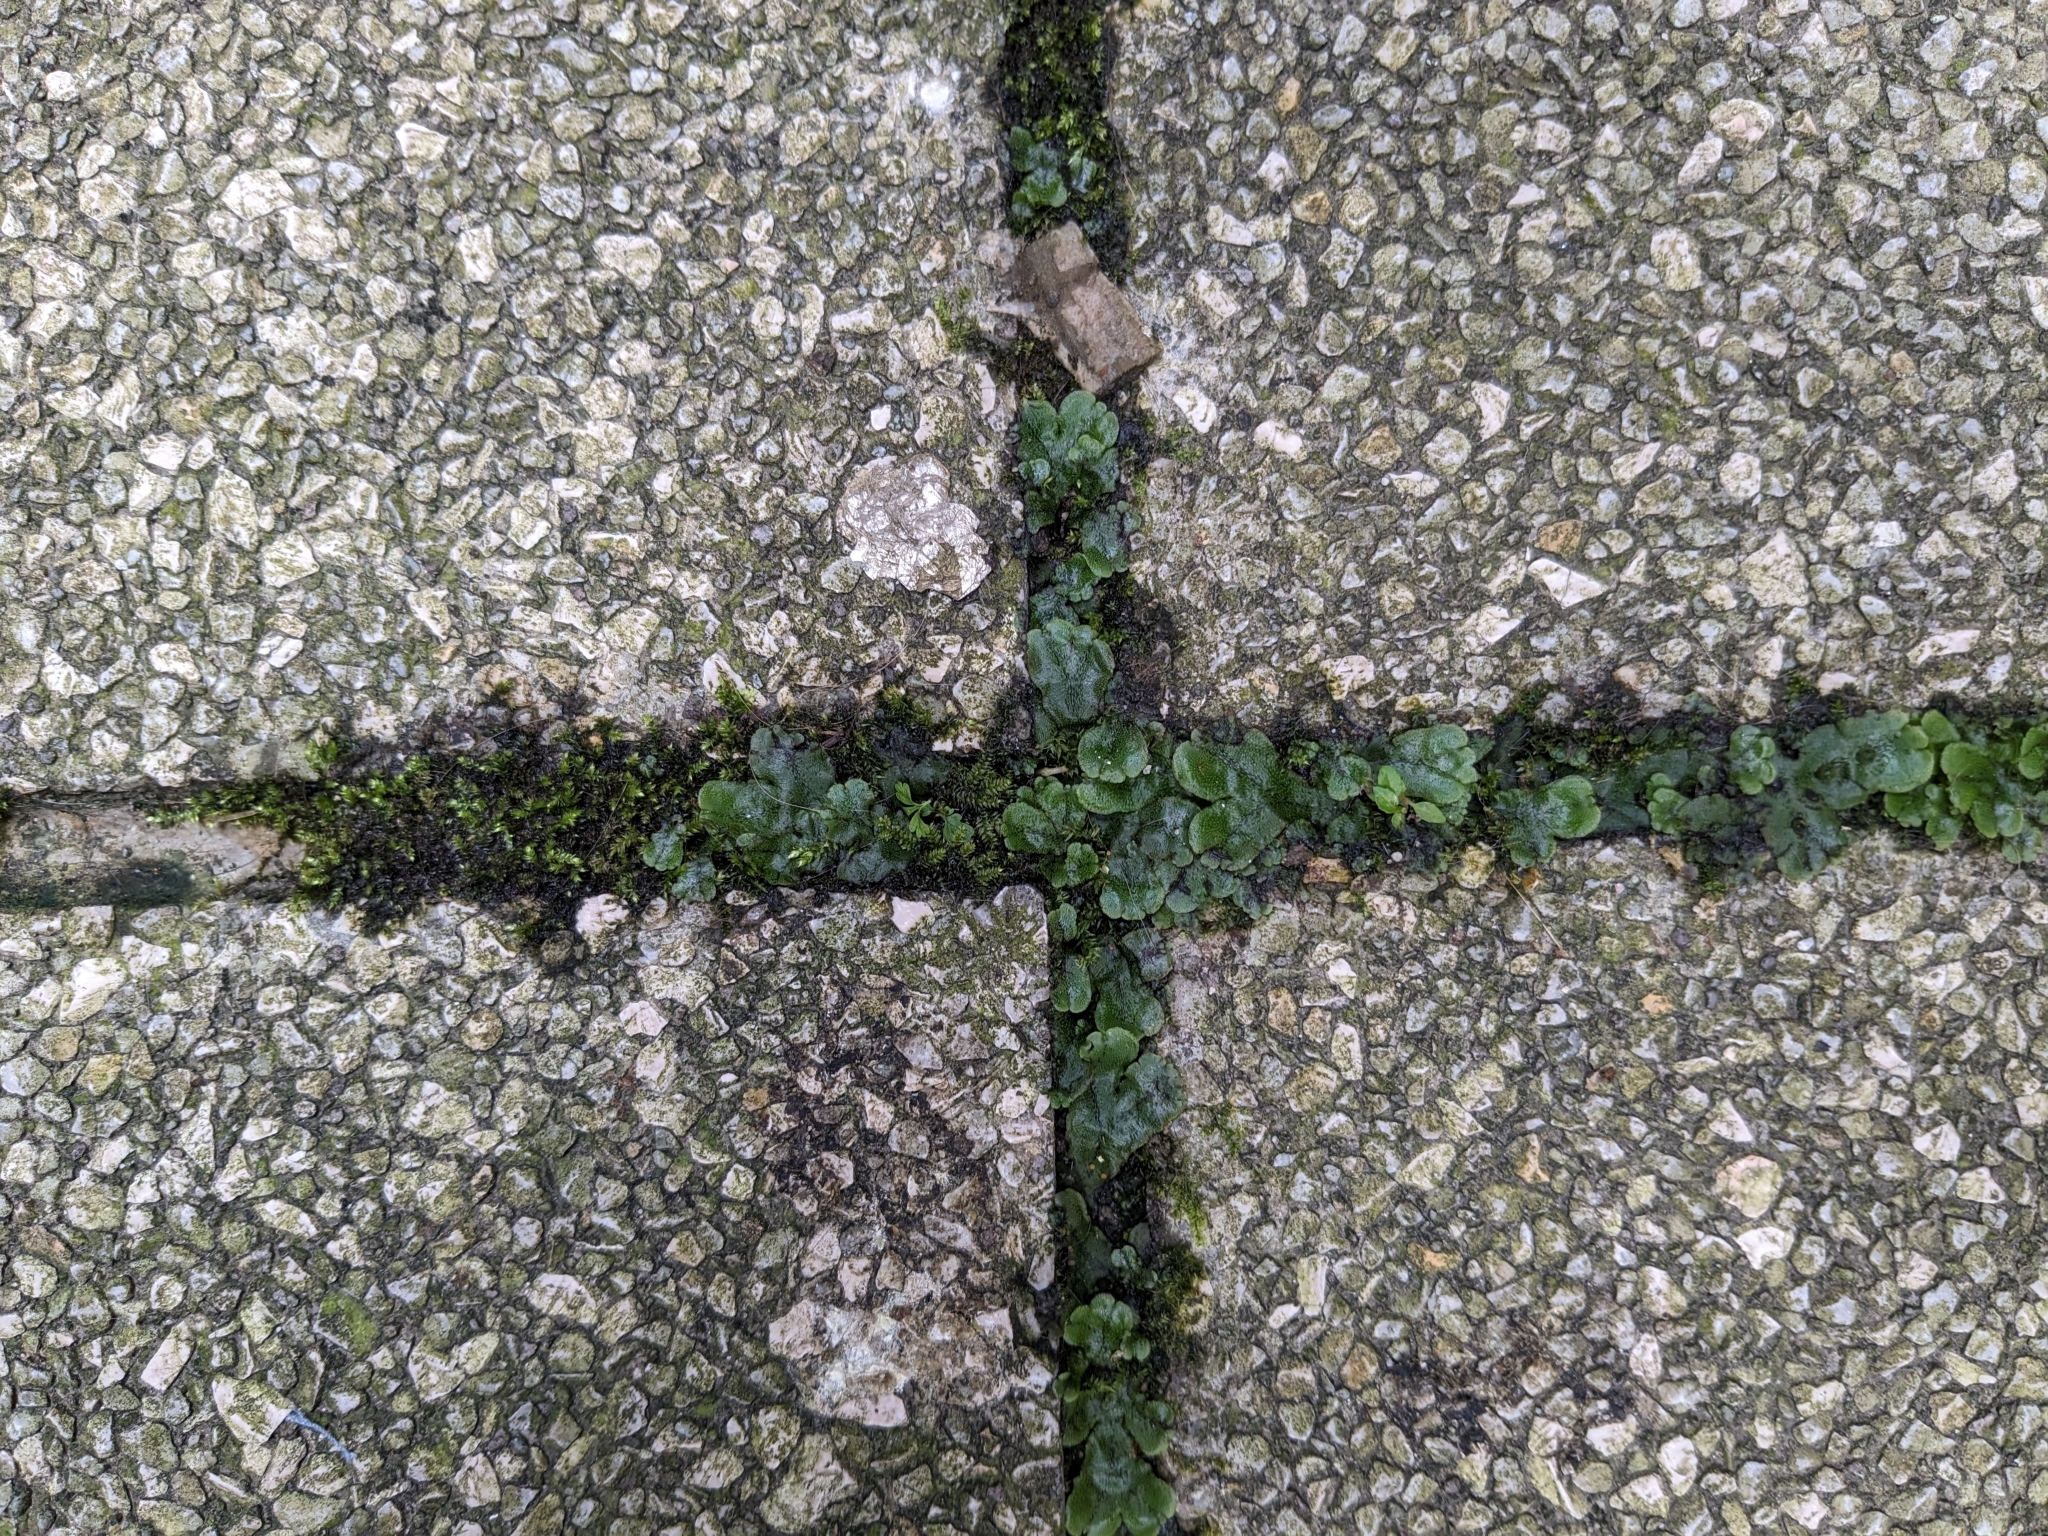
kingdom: Plantae
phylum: Marchantiophyta
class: Marchantiopsida
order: Marchantiales
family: Marchantiaceae
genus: Marchantia
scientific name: Marchantia polymorpha
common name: Common liverwort
